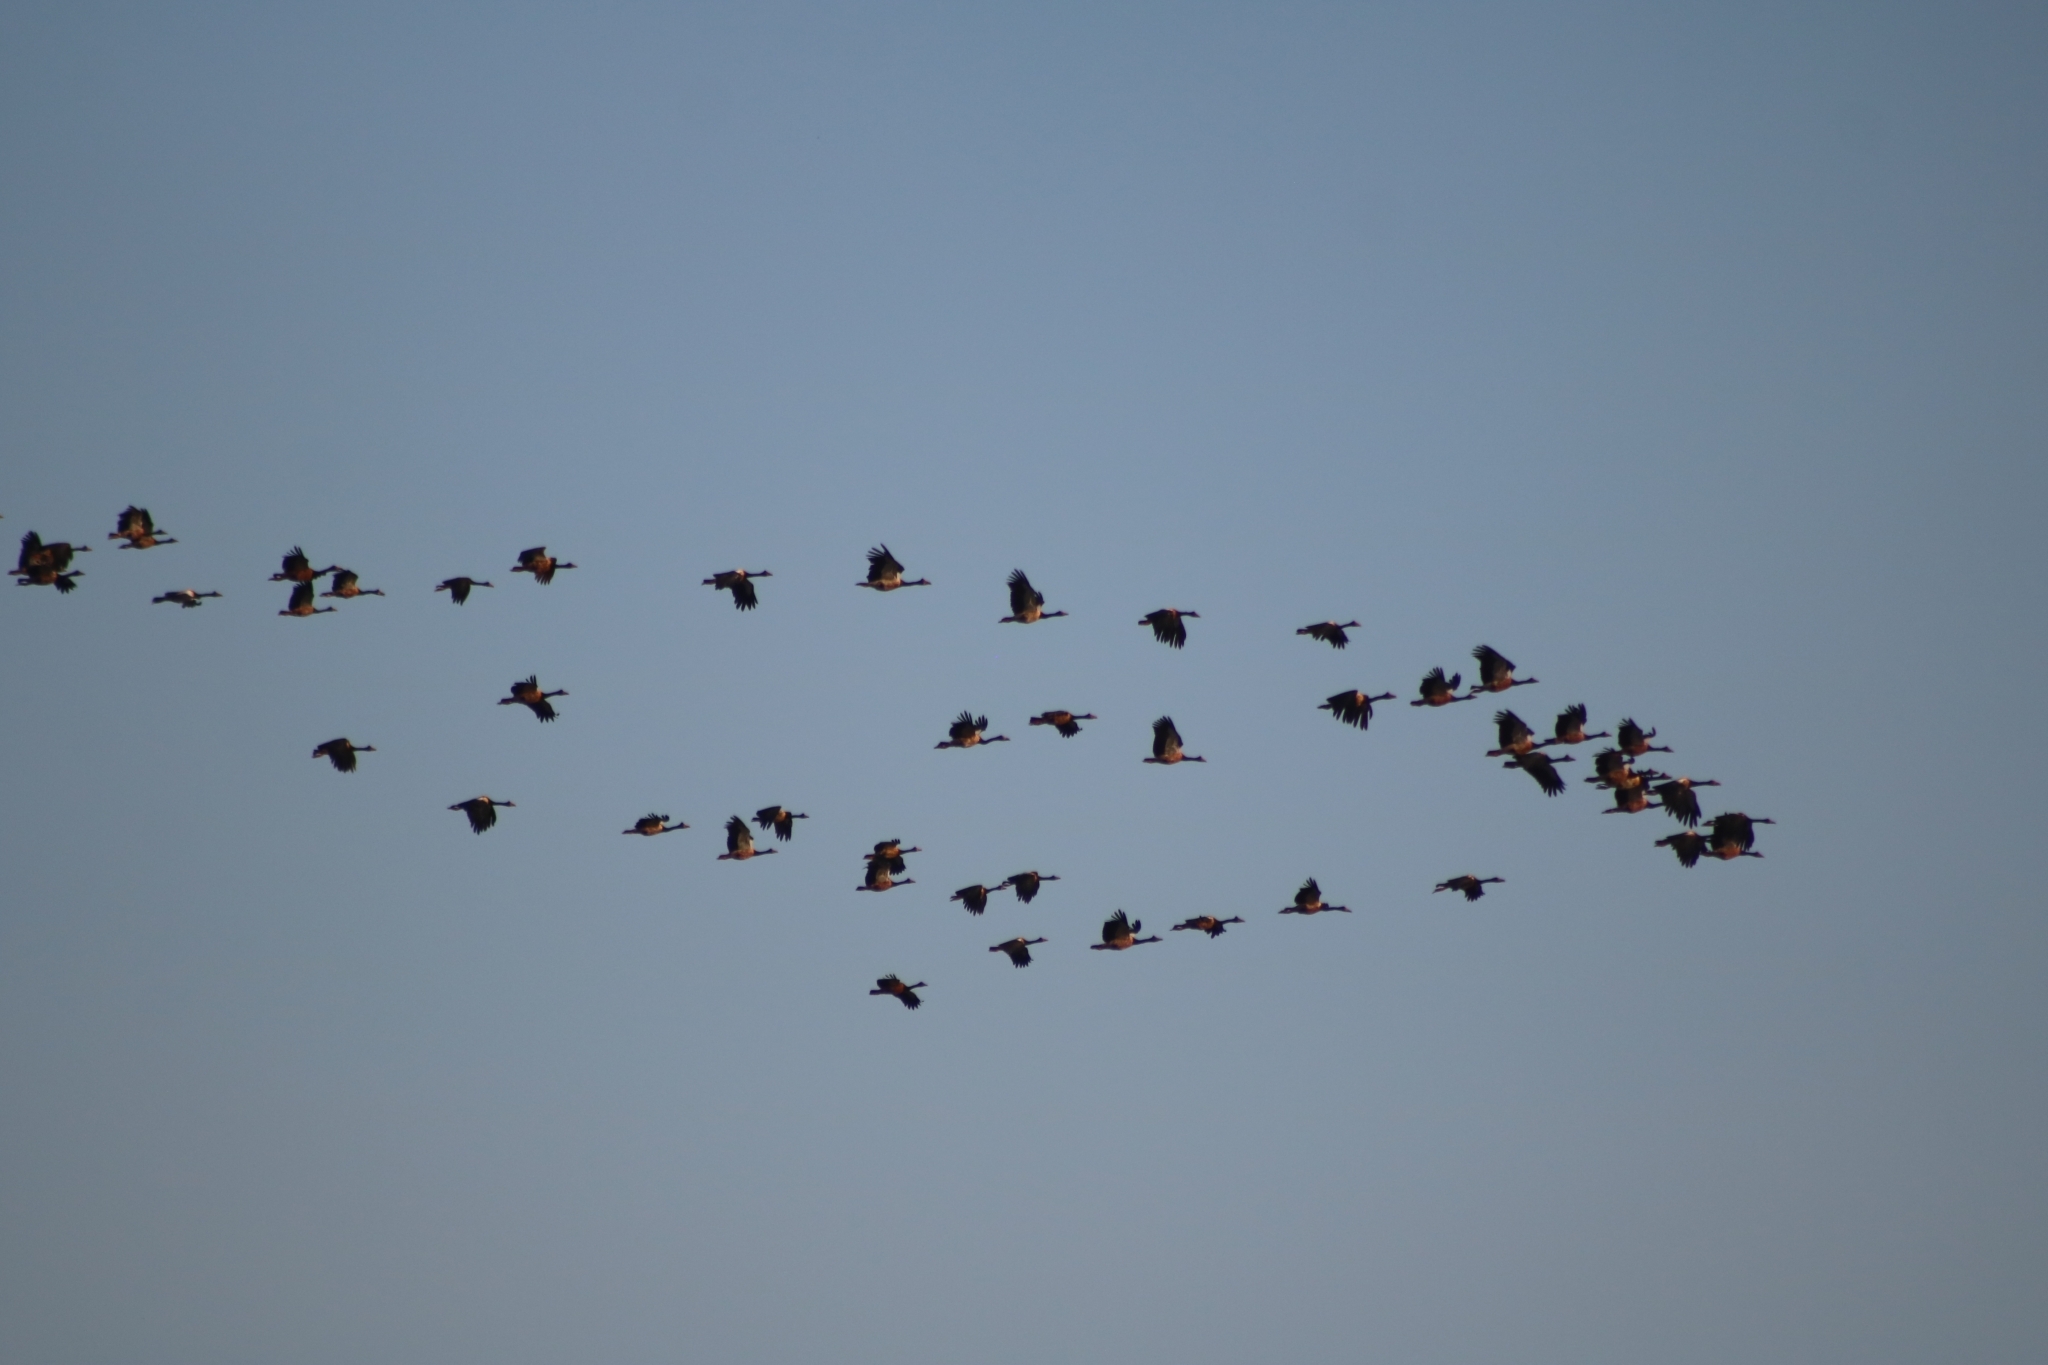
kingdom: Animalia
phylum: Chordata
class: Aves
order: Anseriformes
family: Anseranatidae
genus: Anseranas
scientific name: Anseranas semipalmata
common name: Magpie goose
